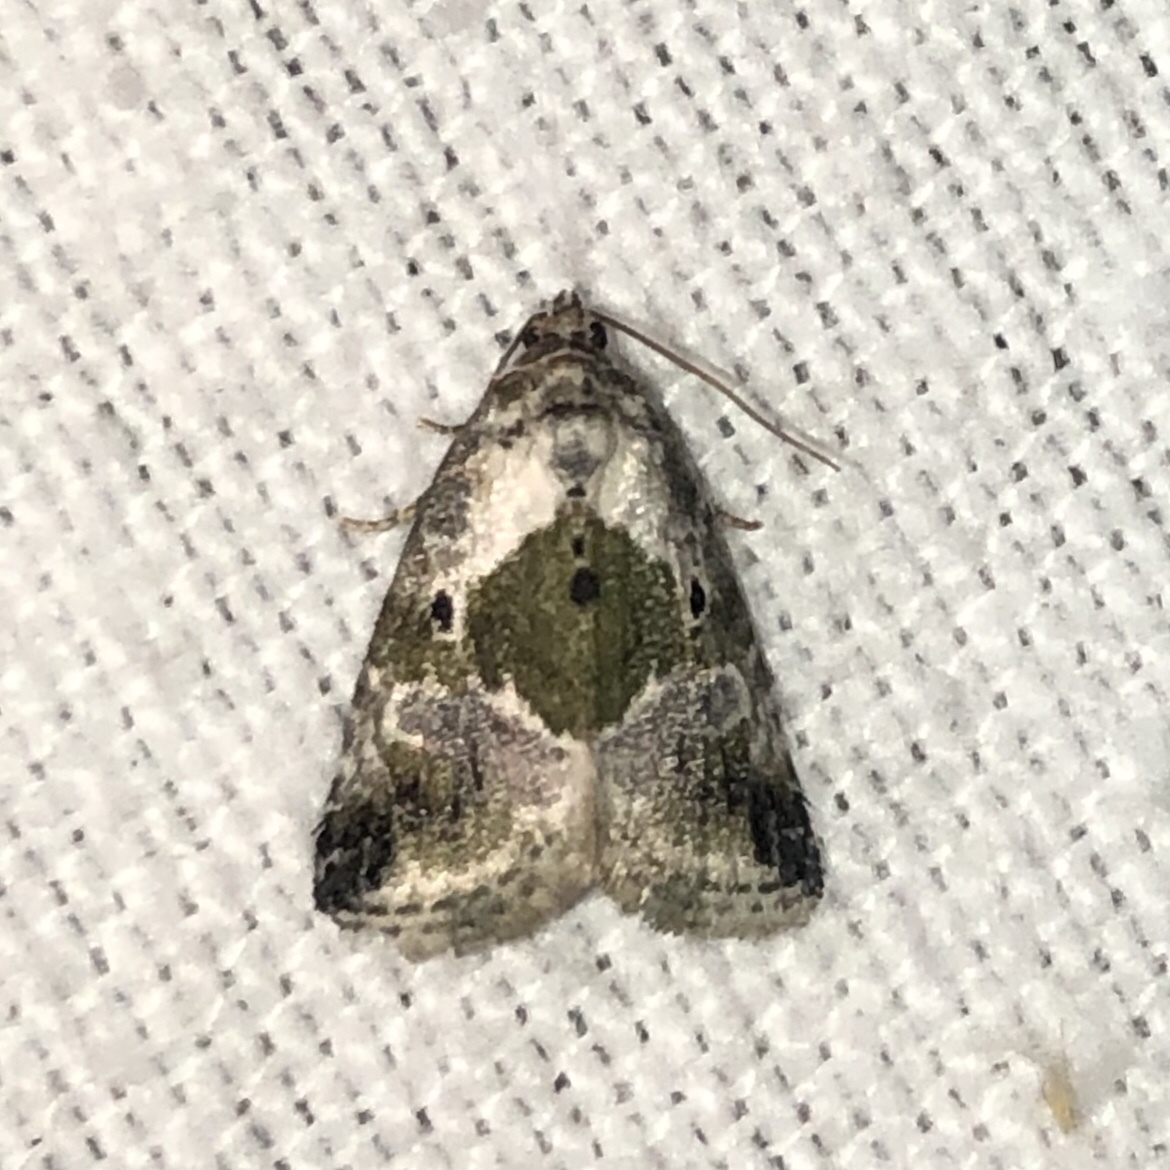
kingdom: Animalia
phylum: Arthropoda
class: Insecta
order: Lepidoptera
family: Noctuidae
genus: Maliattha
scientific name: Maliattha synochitis
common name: Black-dotted glyph
